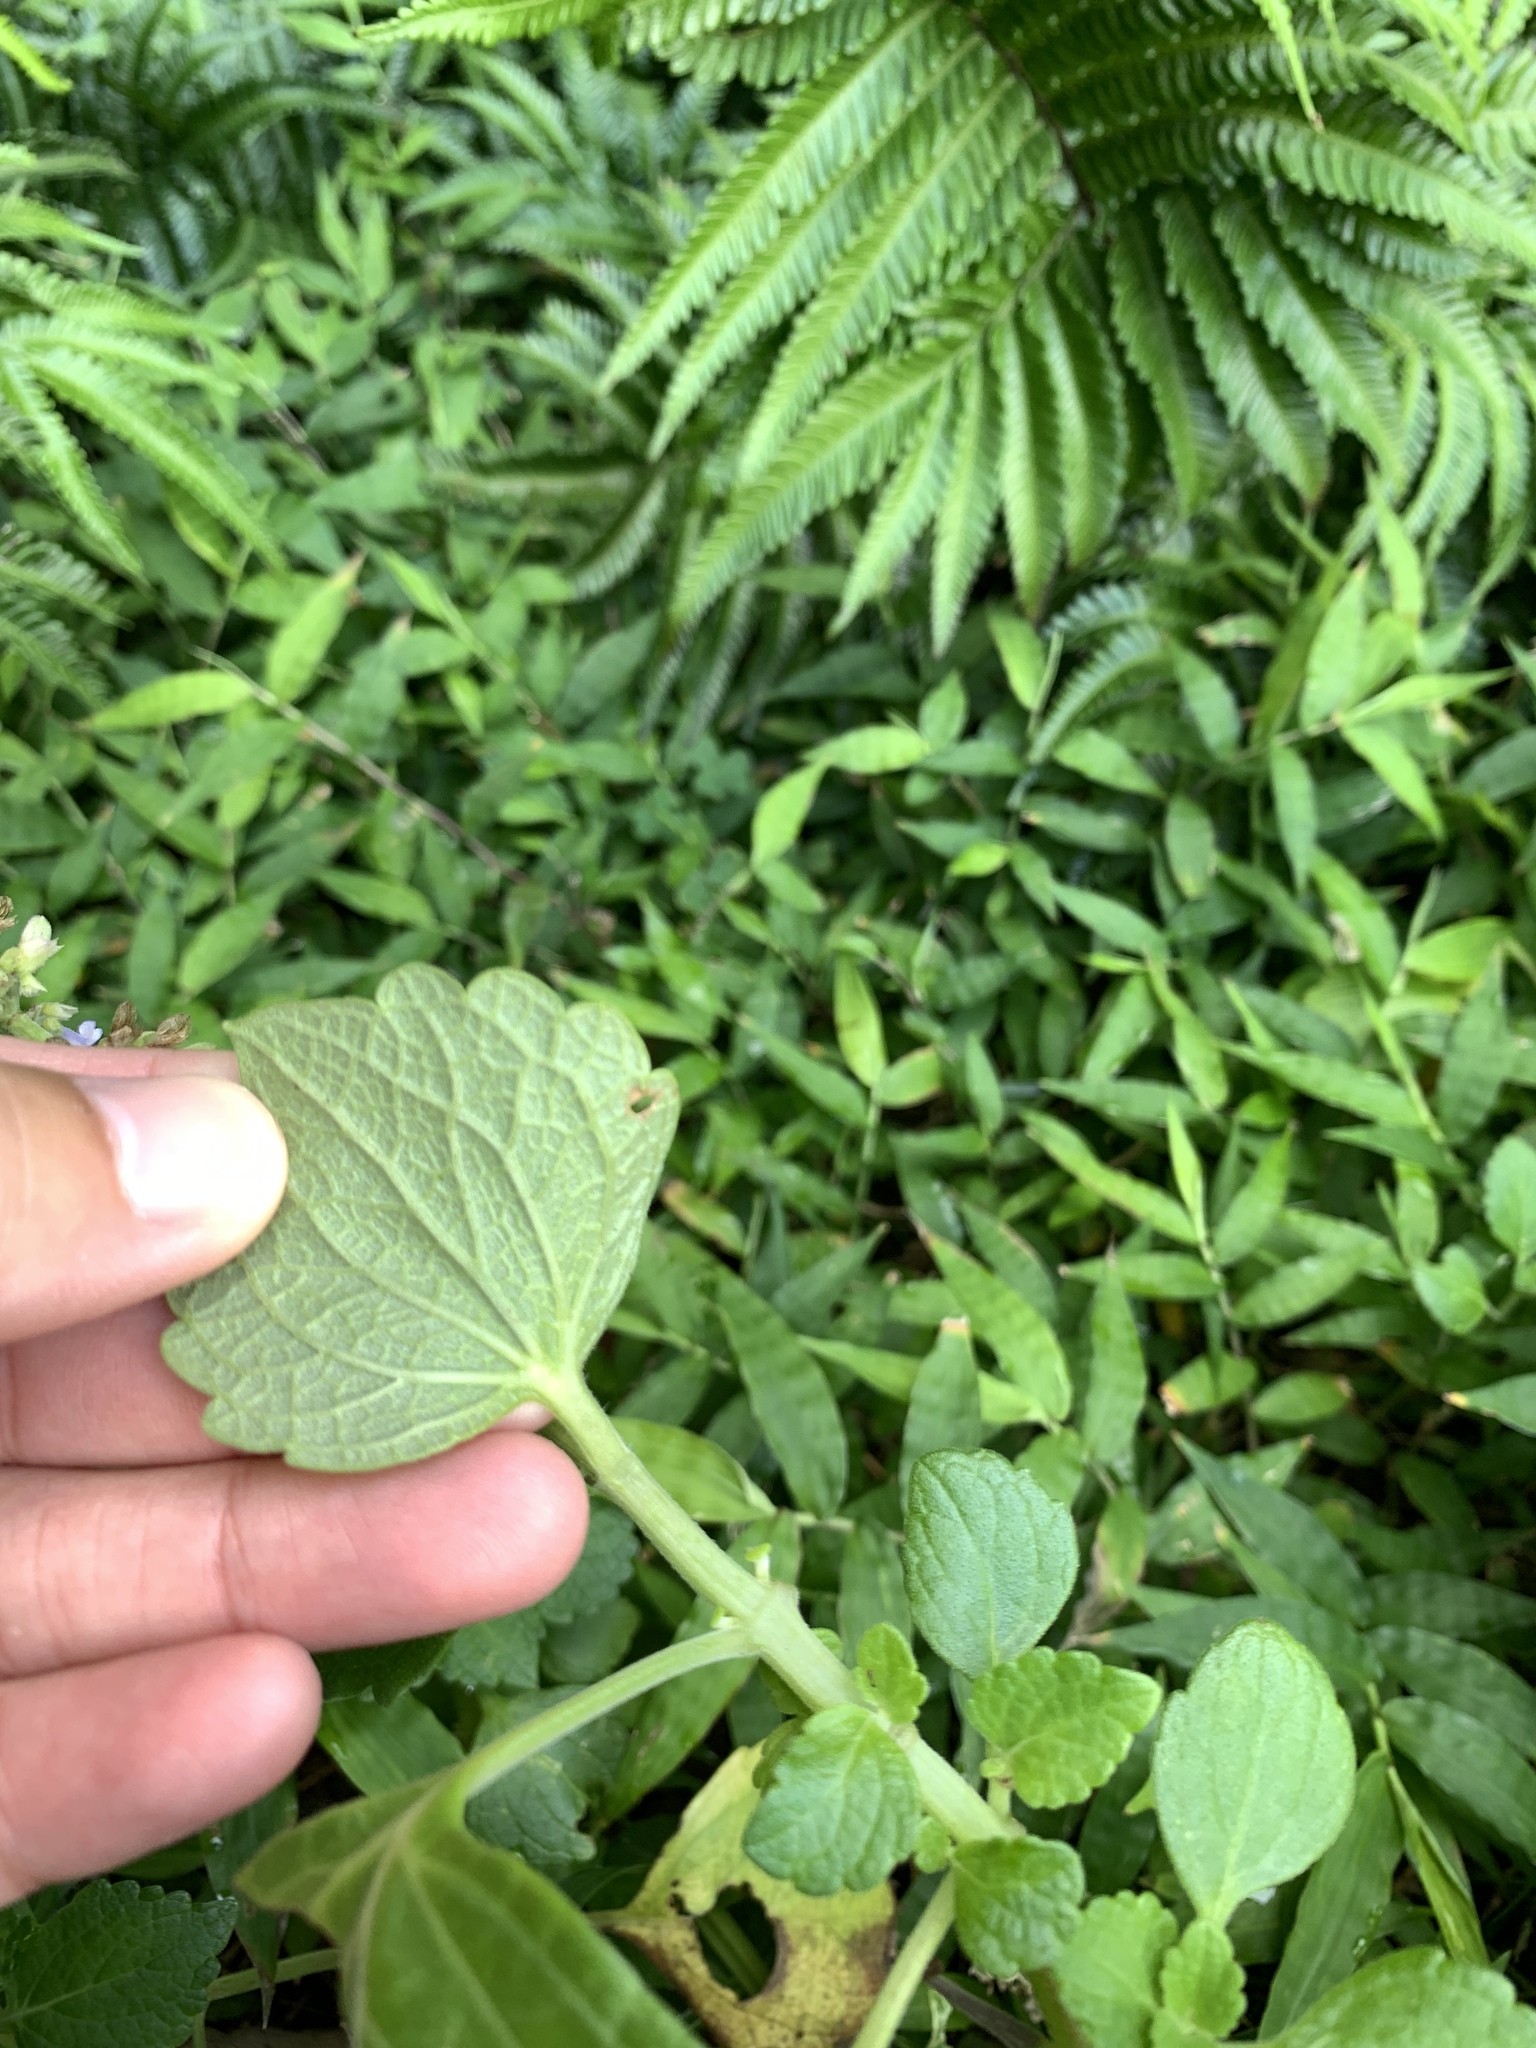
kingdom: Plantae
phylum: Tracheophyta
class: Magnoliopsida
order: Lamiales
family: Lamiaceae
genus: Coleus
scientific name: Coleus scutellarioides
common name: Coleus
